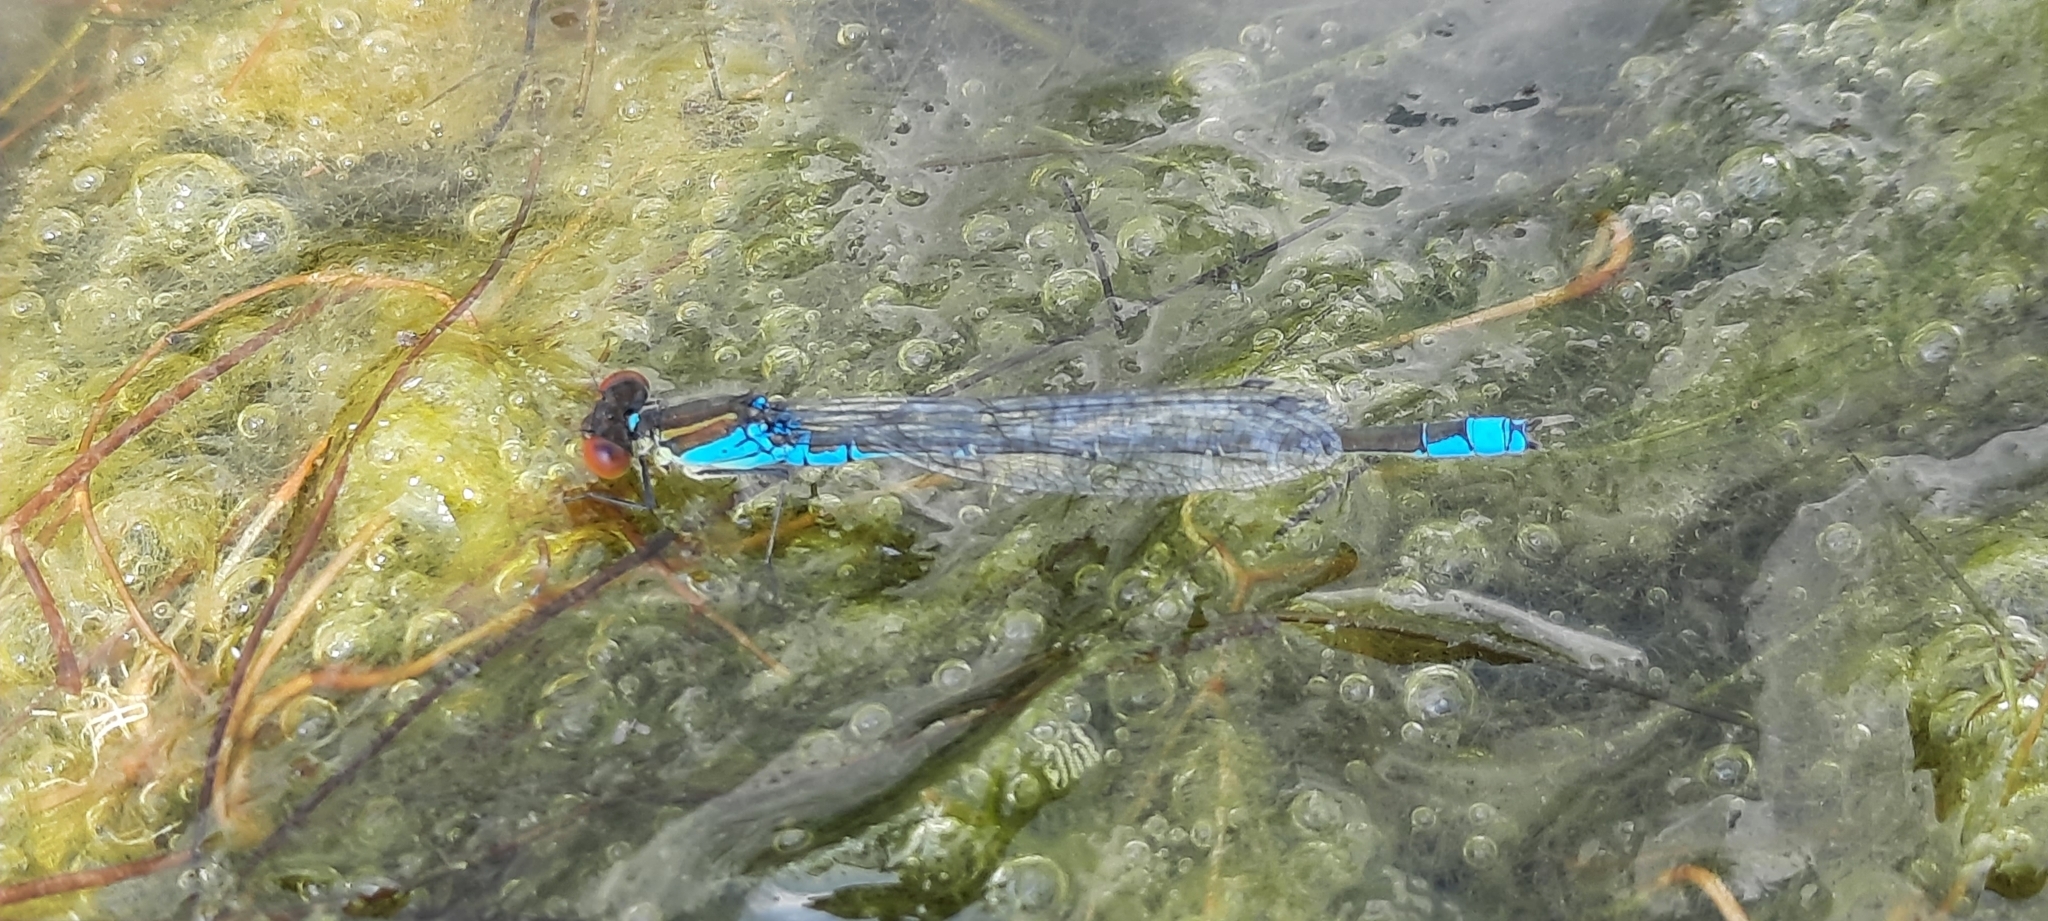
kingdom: Animalia
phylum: Arthropoda
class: Insecta
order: Odonata
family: Coenagrionidae
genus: Erythromma
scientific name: Erythromma viridulum
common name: Small red-eyed damselfly
